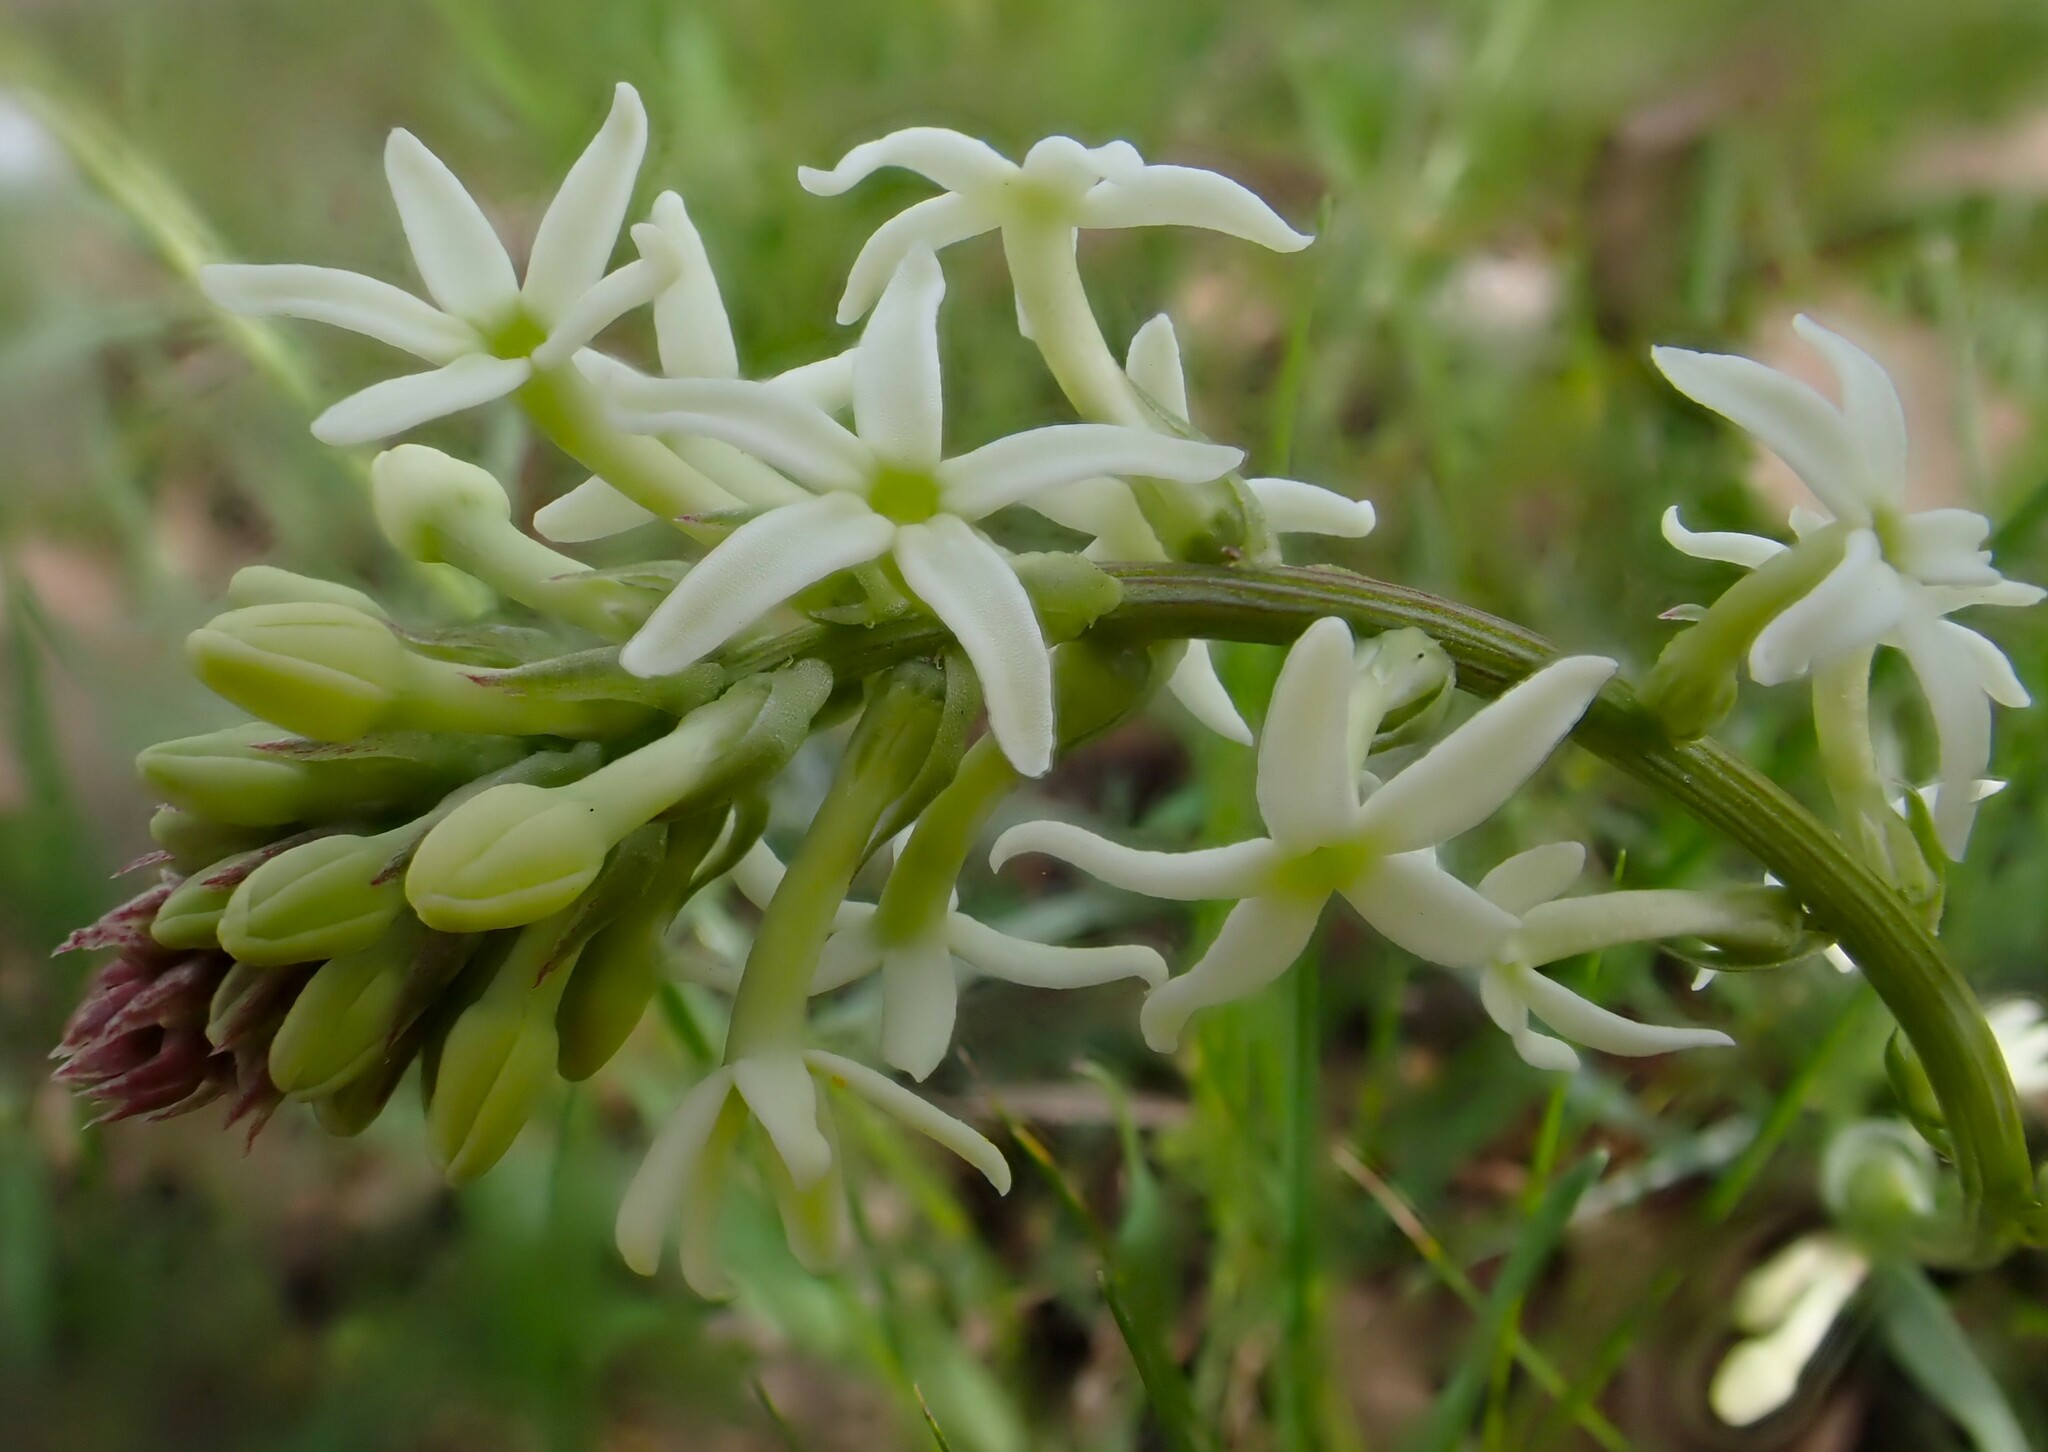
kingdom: Plantae
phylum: Tracheophyta
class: Magnoliopsida
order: Celastrales
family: Celastraceae
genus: Stackhousia
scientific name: Stackhousia monogyna
